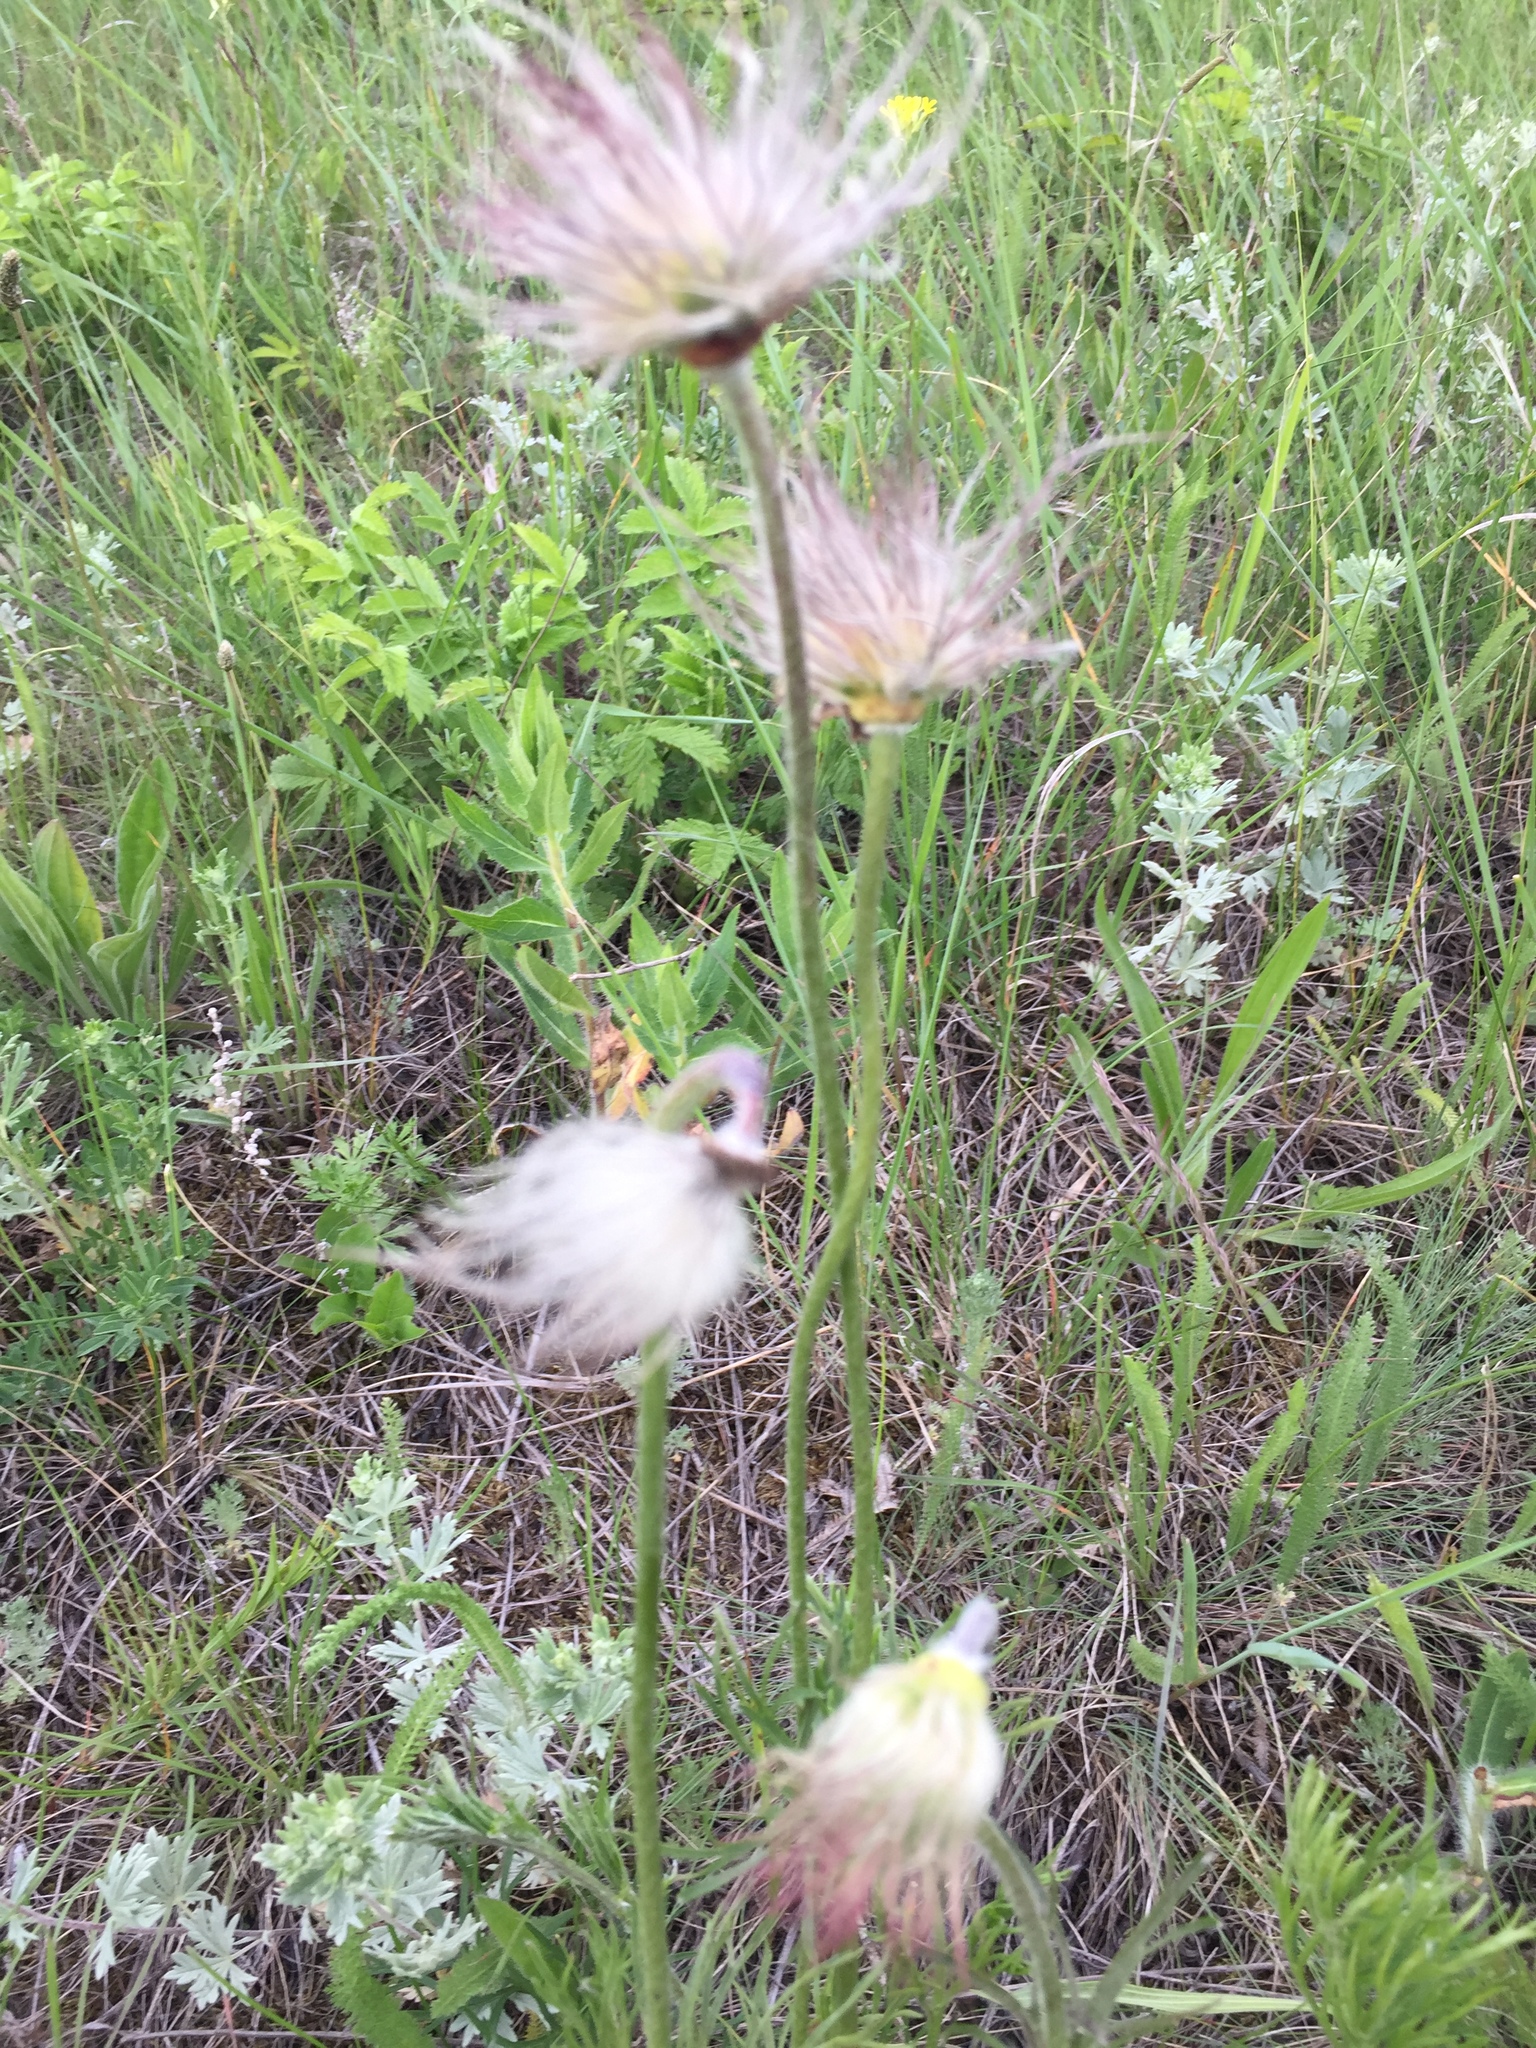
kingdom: Plantae
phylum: Tracheophyta
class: Magnoliopsida
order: Ranunculales
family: Ranunculaceae
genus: Pulsatilla
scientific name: Pulsatilla pratensis
